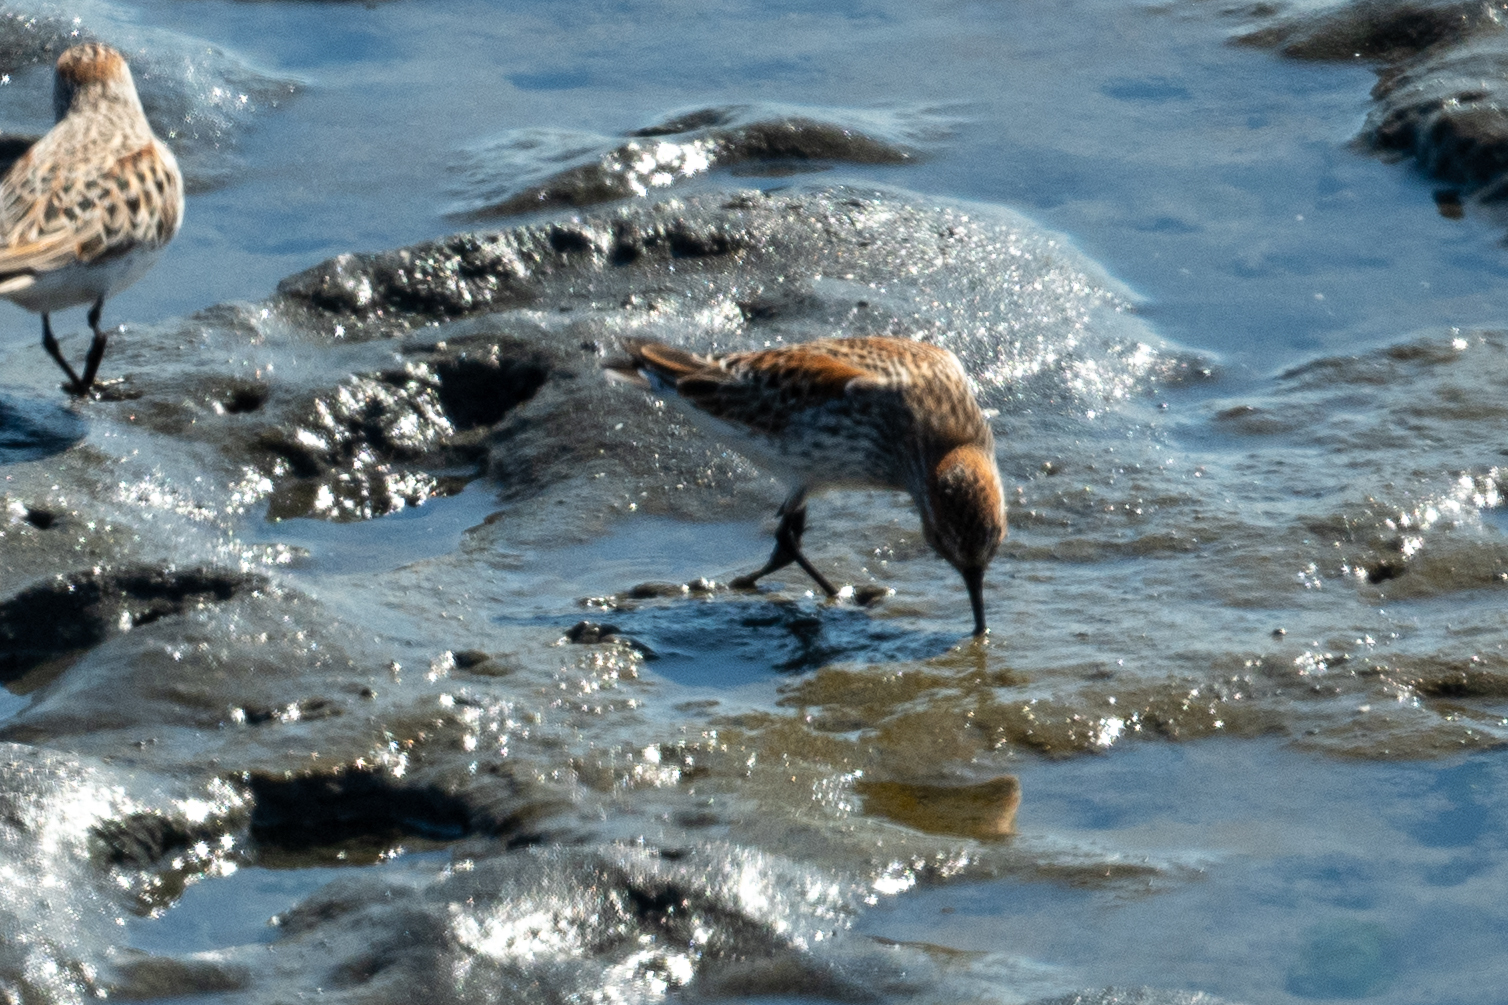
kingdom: Animalia
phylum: Chordata
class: Aves
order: Charadriiformes
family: Scolopacidae
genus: Calidris
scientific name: Calidris mauri
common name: Western sandpiper
